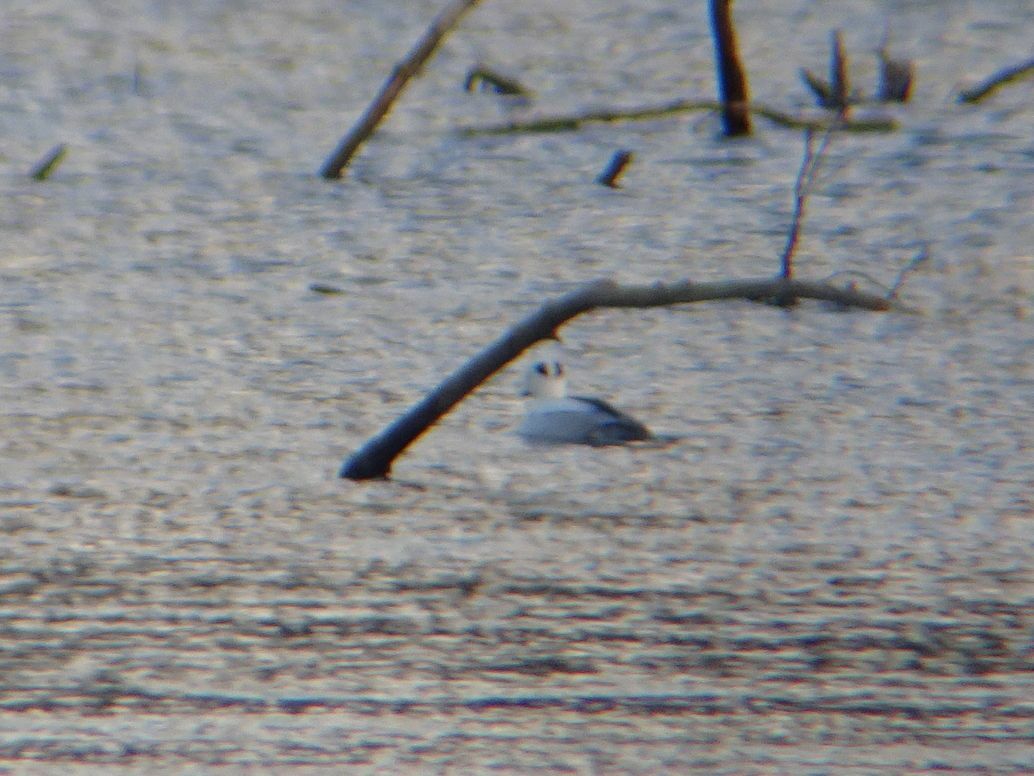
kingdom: Animalia
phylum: Chordata
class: Aves
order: Anseriformes
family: Anatidae
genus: Mergellus
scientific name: Mergellus albellus
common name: Smew
